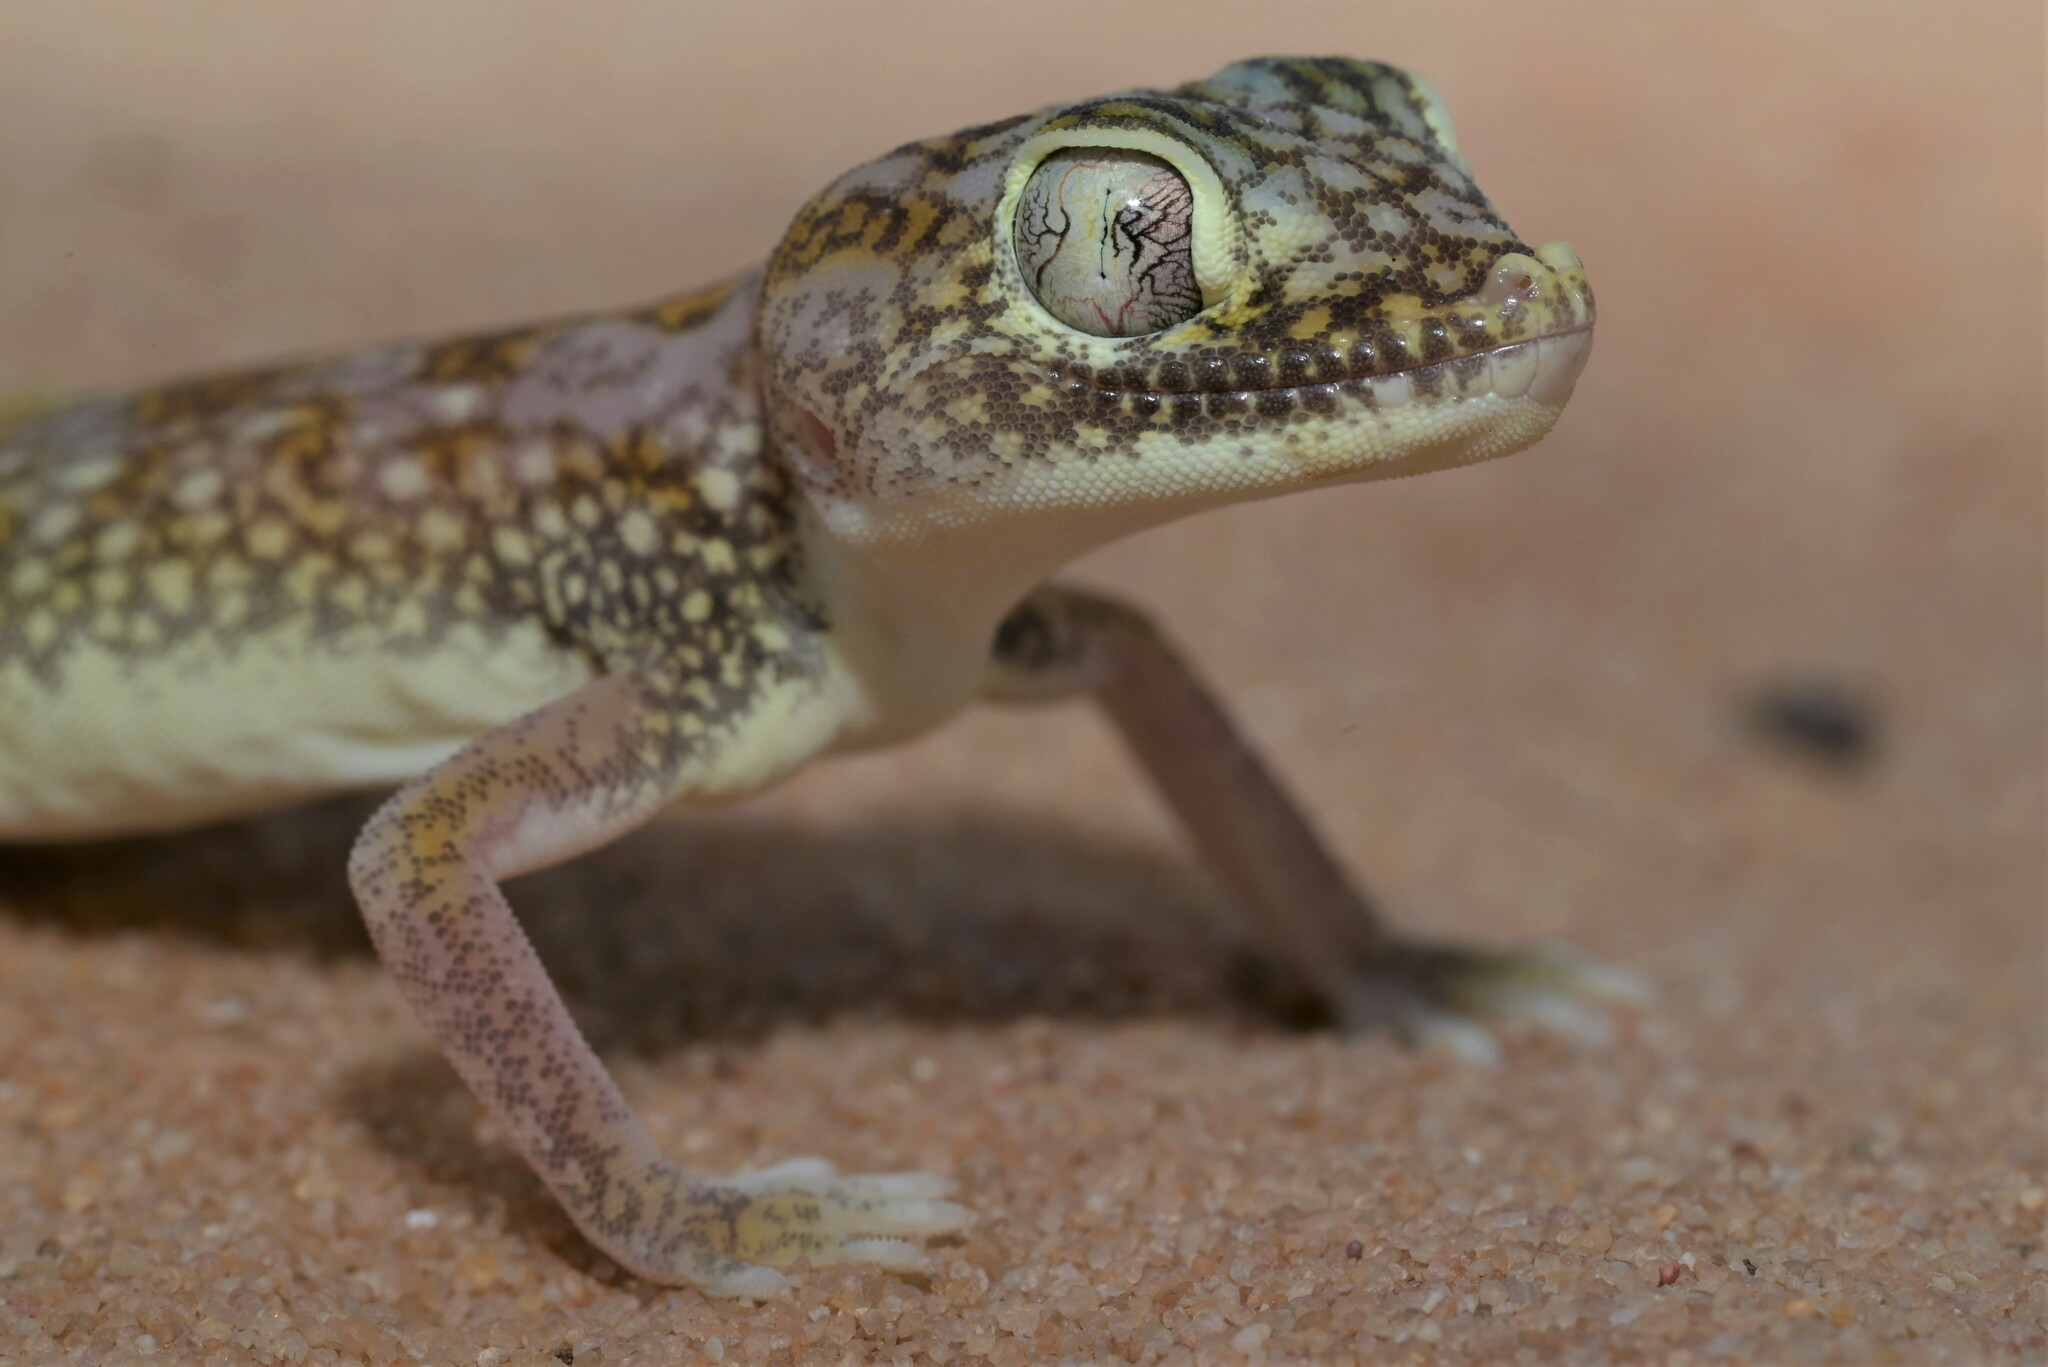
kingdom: Animalia
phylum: Chordata
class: Squamata
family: Gekkonidae
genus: Stenodactylus
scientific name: Stenodactylus doriae
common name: Dune sand gecko
